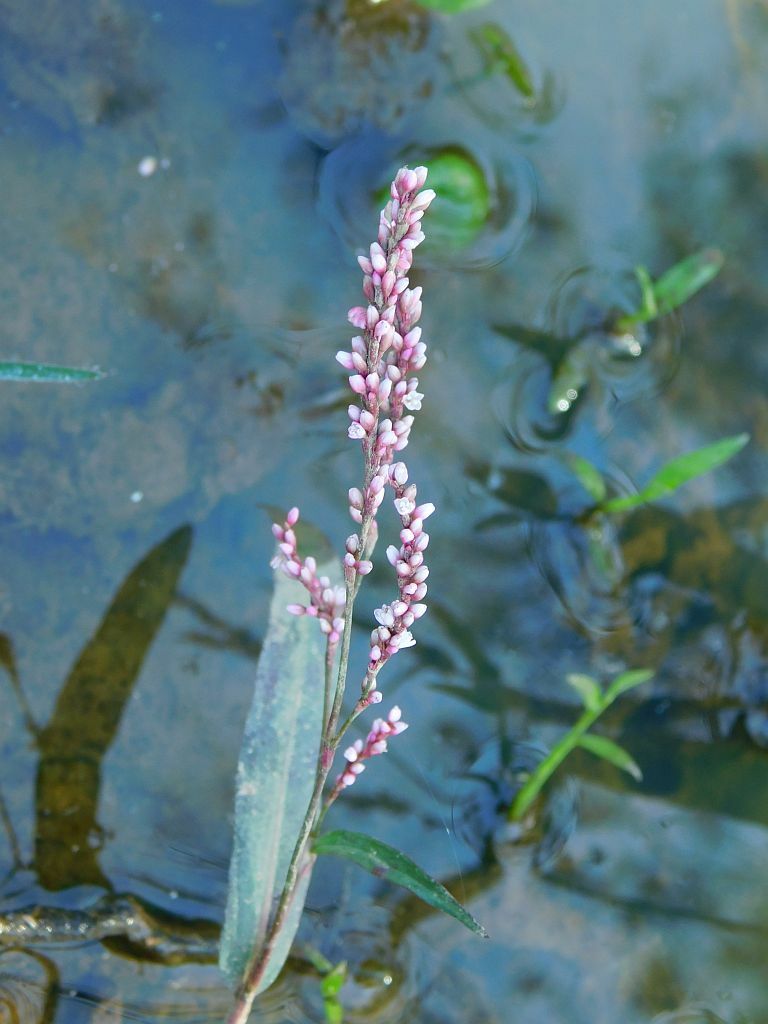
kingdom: Plantae
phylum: Tracheophyta
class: Magnoliopsida
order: Caryophyllales
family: Polygonaceae
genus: Persicaria
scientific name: Persicaria decipiens
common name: Willow-weed
